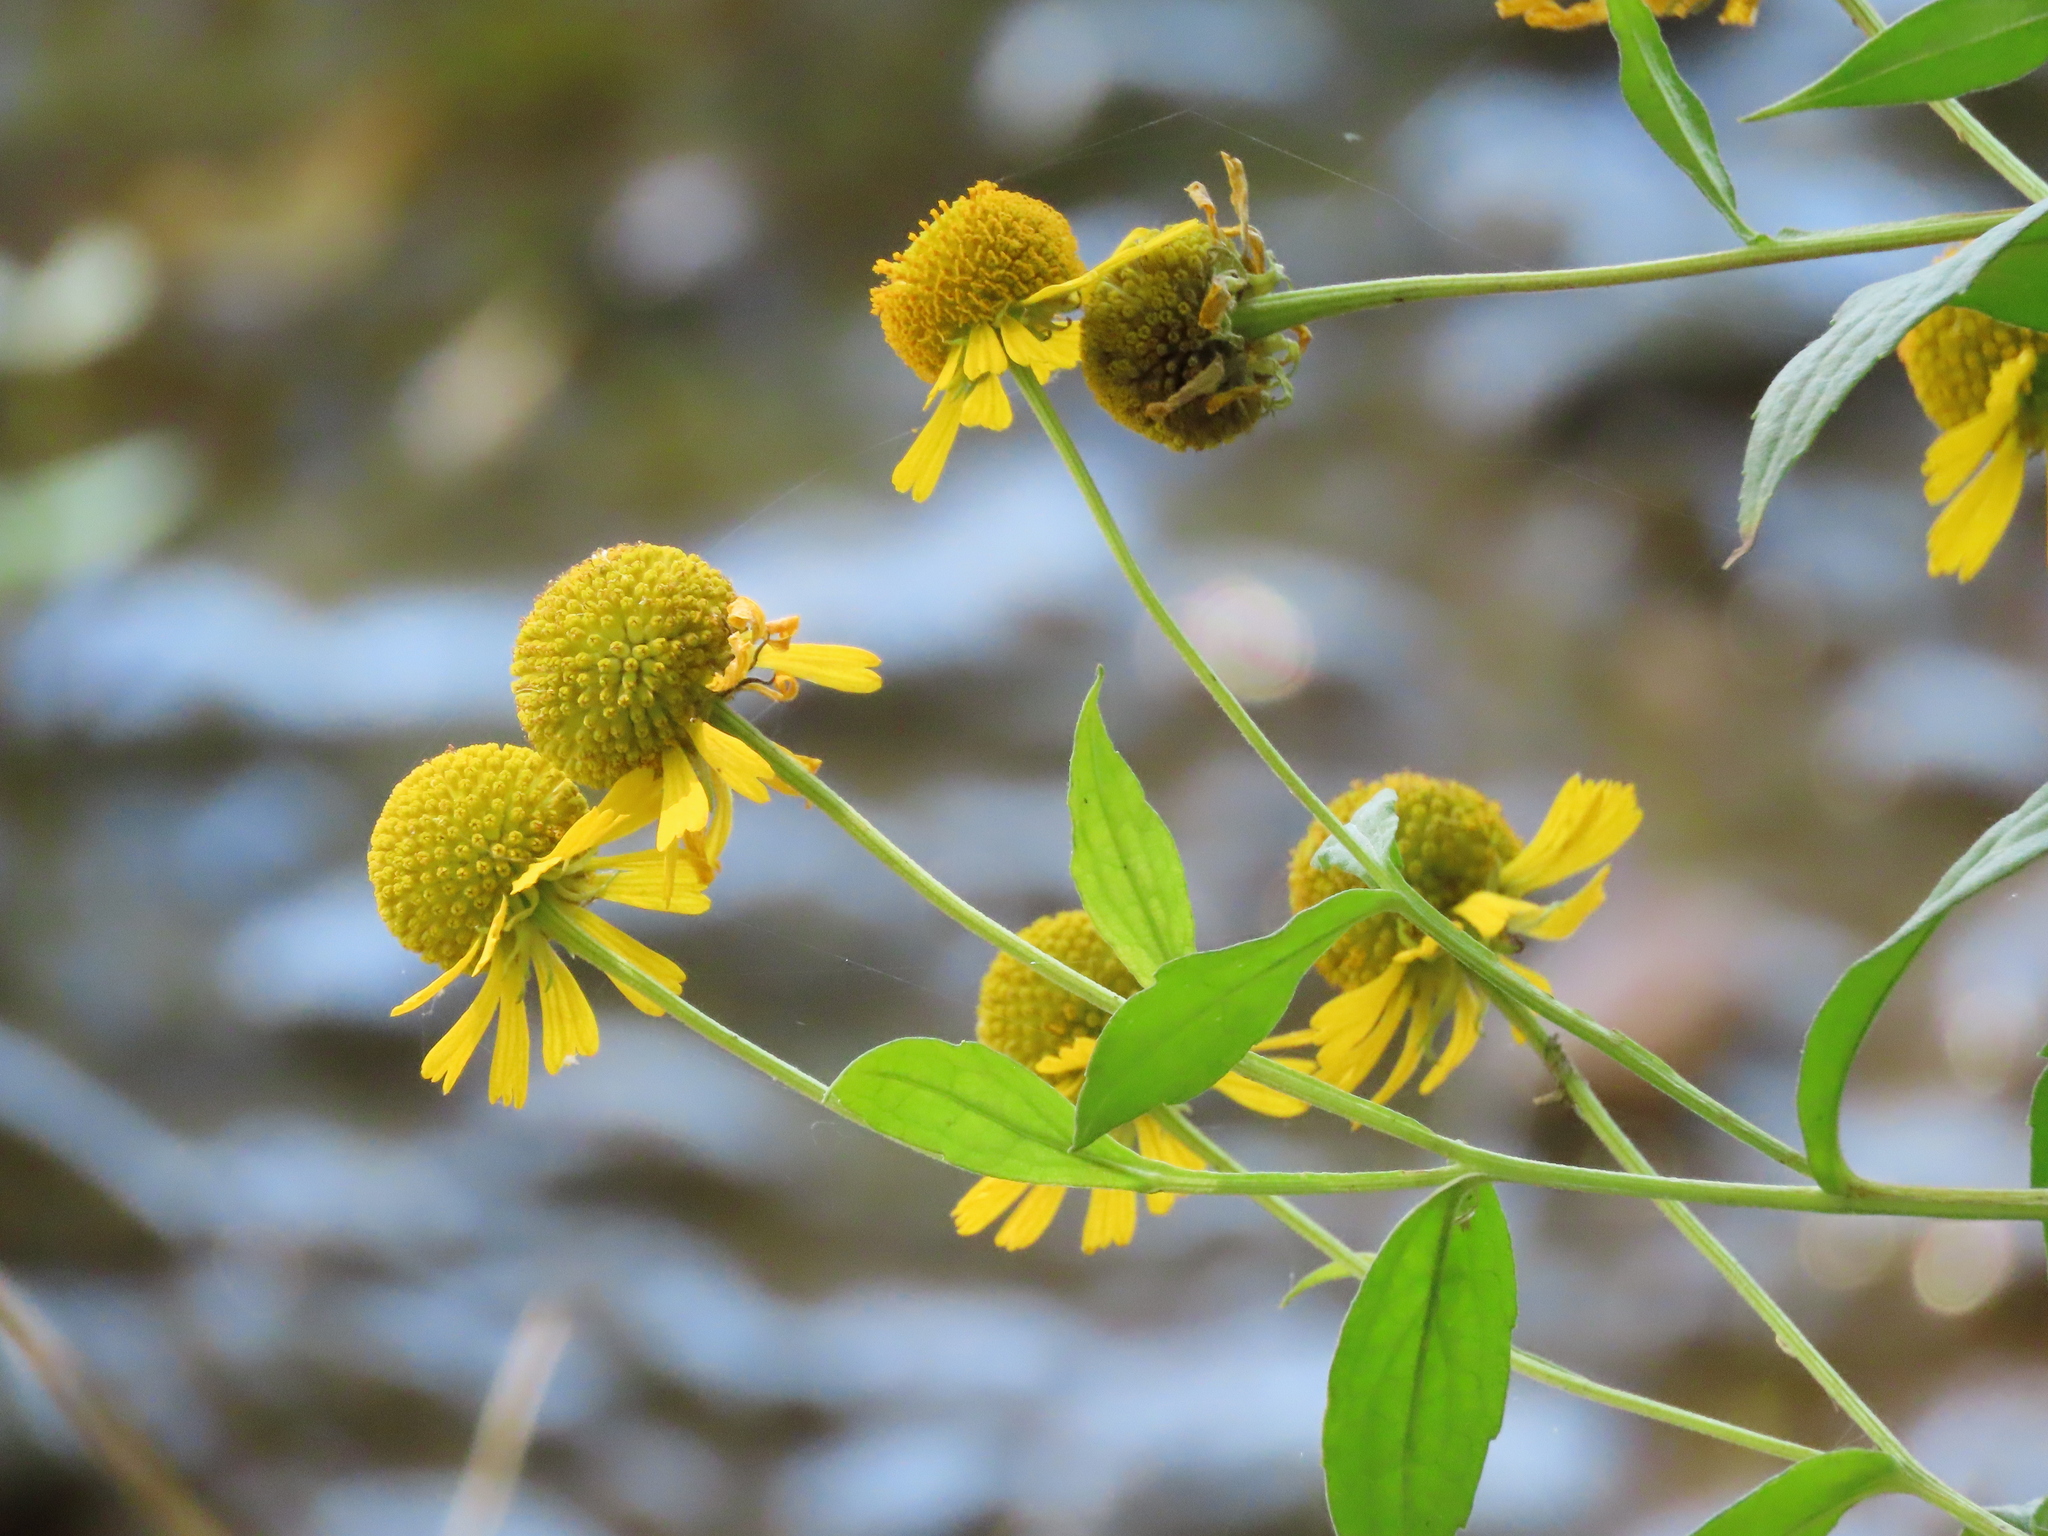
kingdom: Plantae
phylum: Tracheophyta
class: Magnoliopsida
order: Asterales
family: Asteraceae
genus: Helenium
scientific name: Helenium autumnale
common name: Sneezeweed
